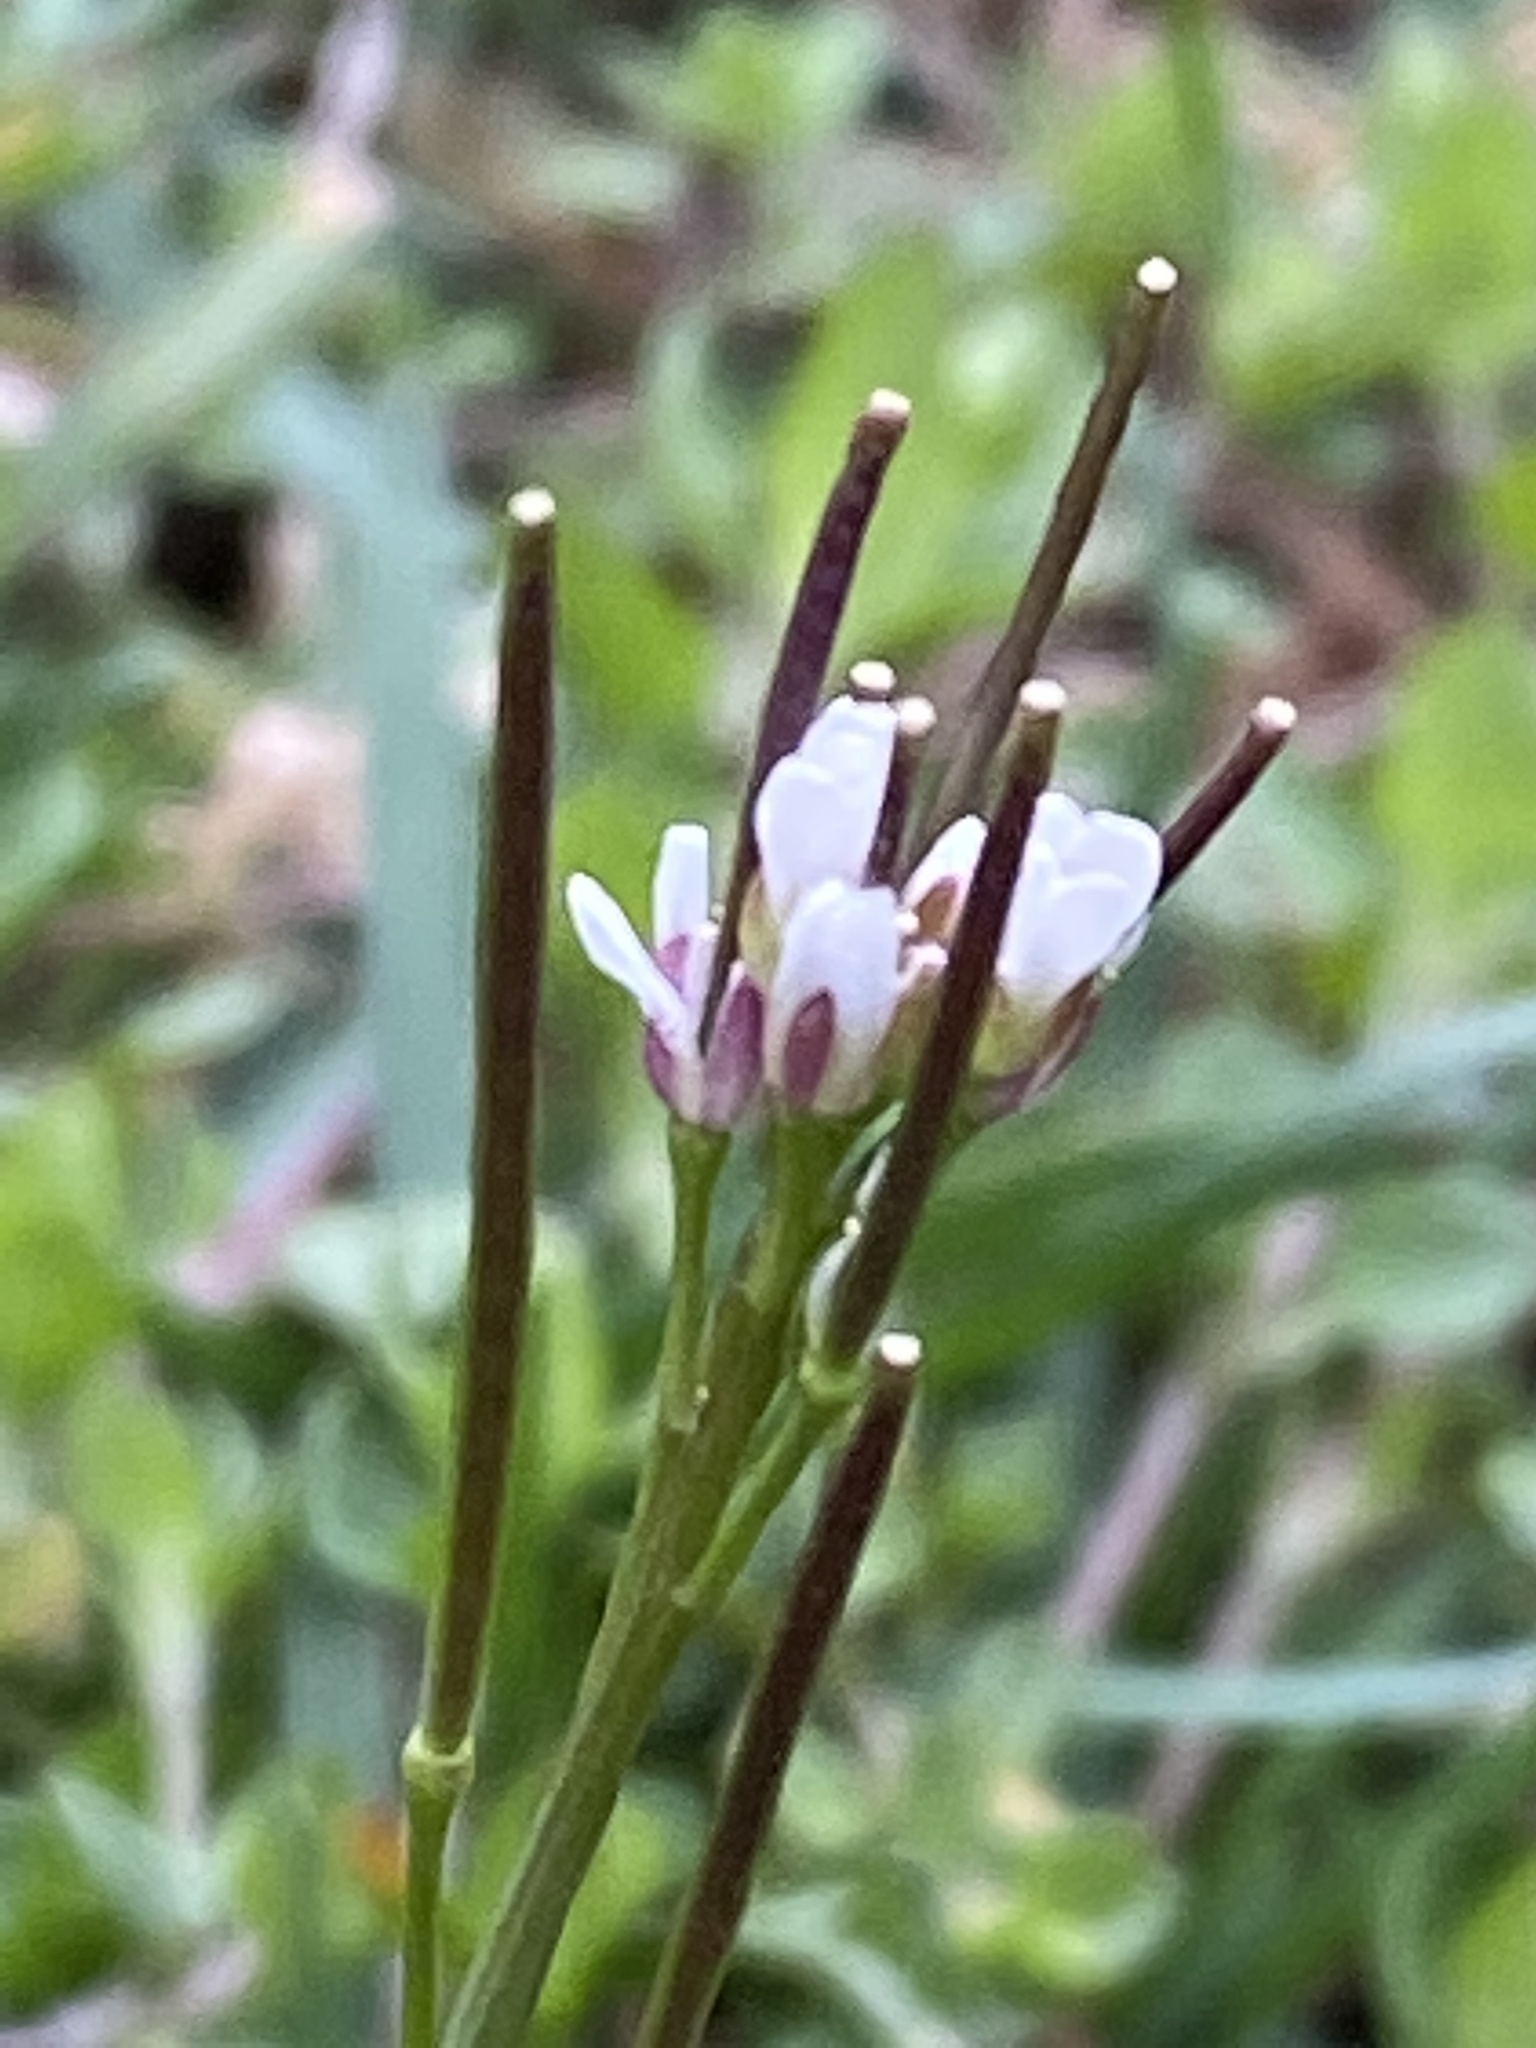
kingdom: Plantae
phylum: Tracheophyta
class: Magnoliopsida
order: Brassicales
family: Brassicaceae
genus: Cardamine
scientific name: Cardamine hirsuta
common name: Hairy bittercress
